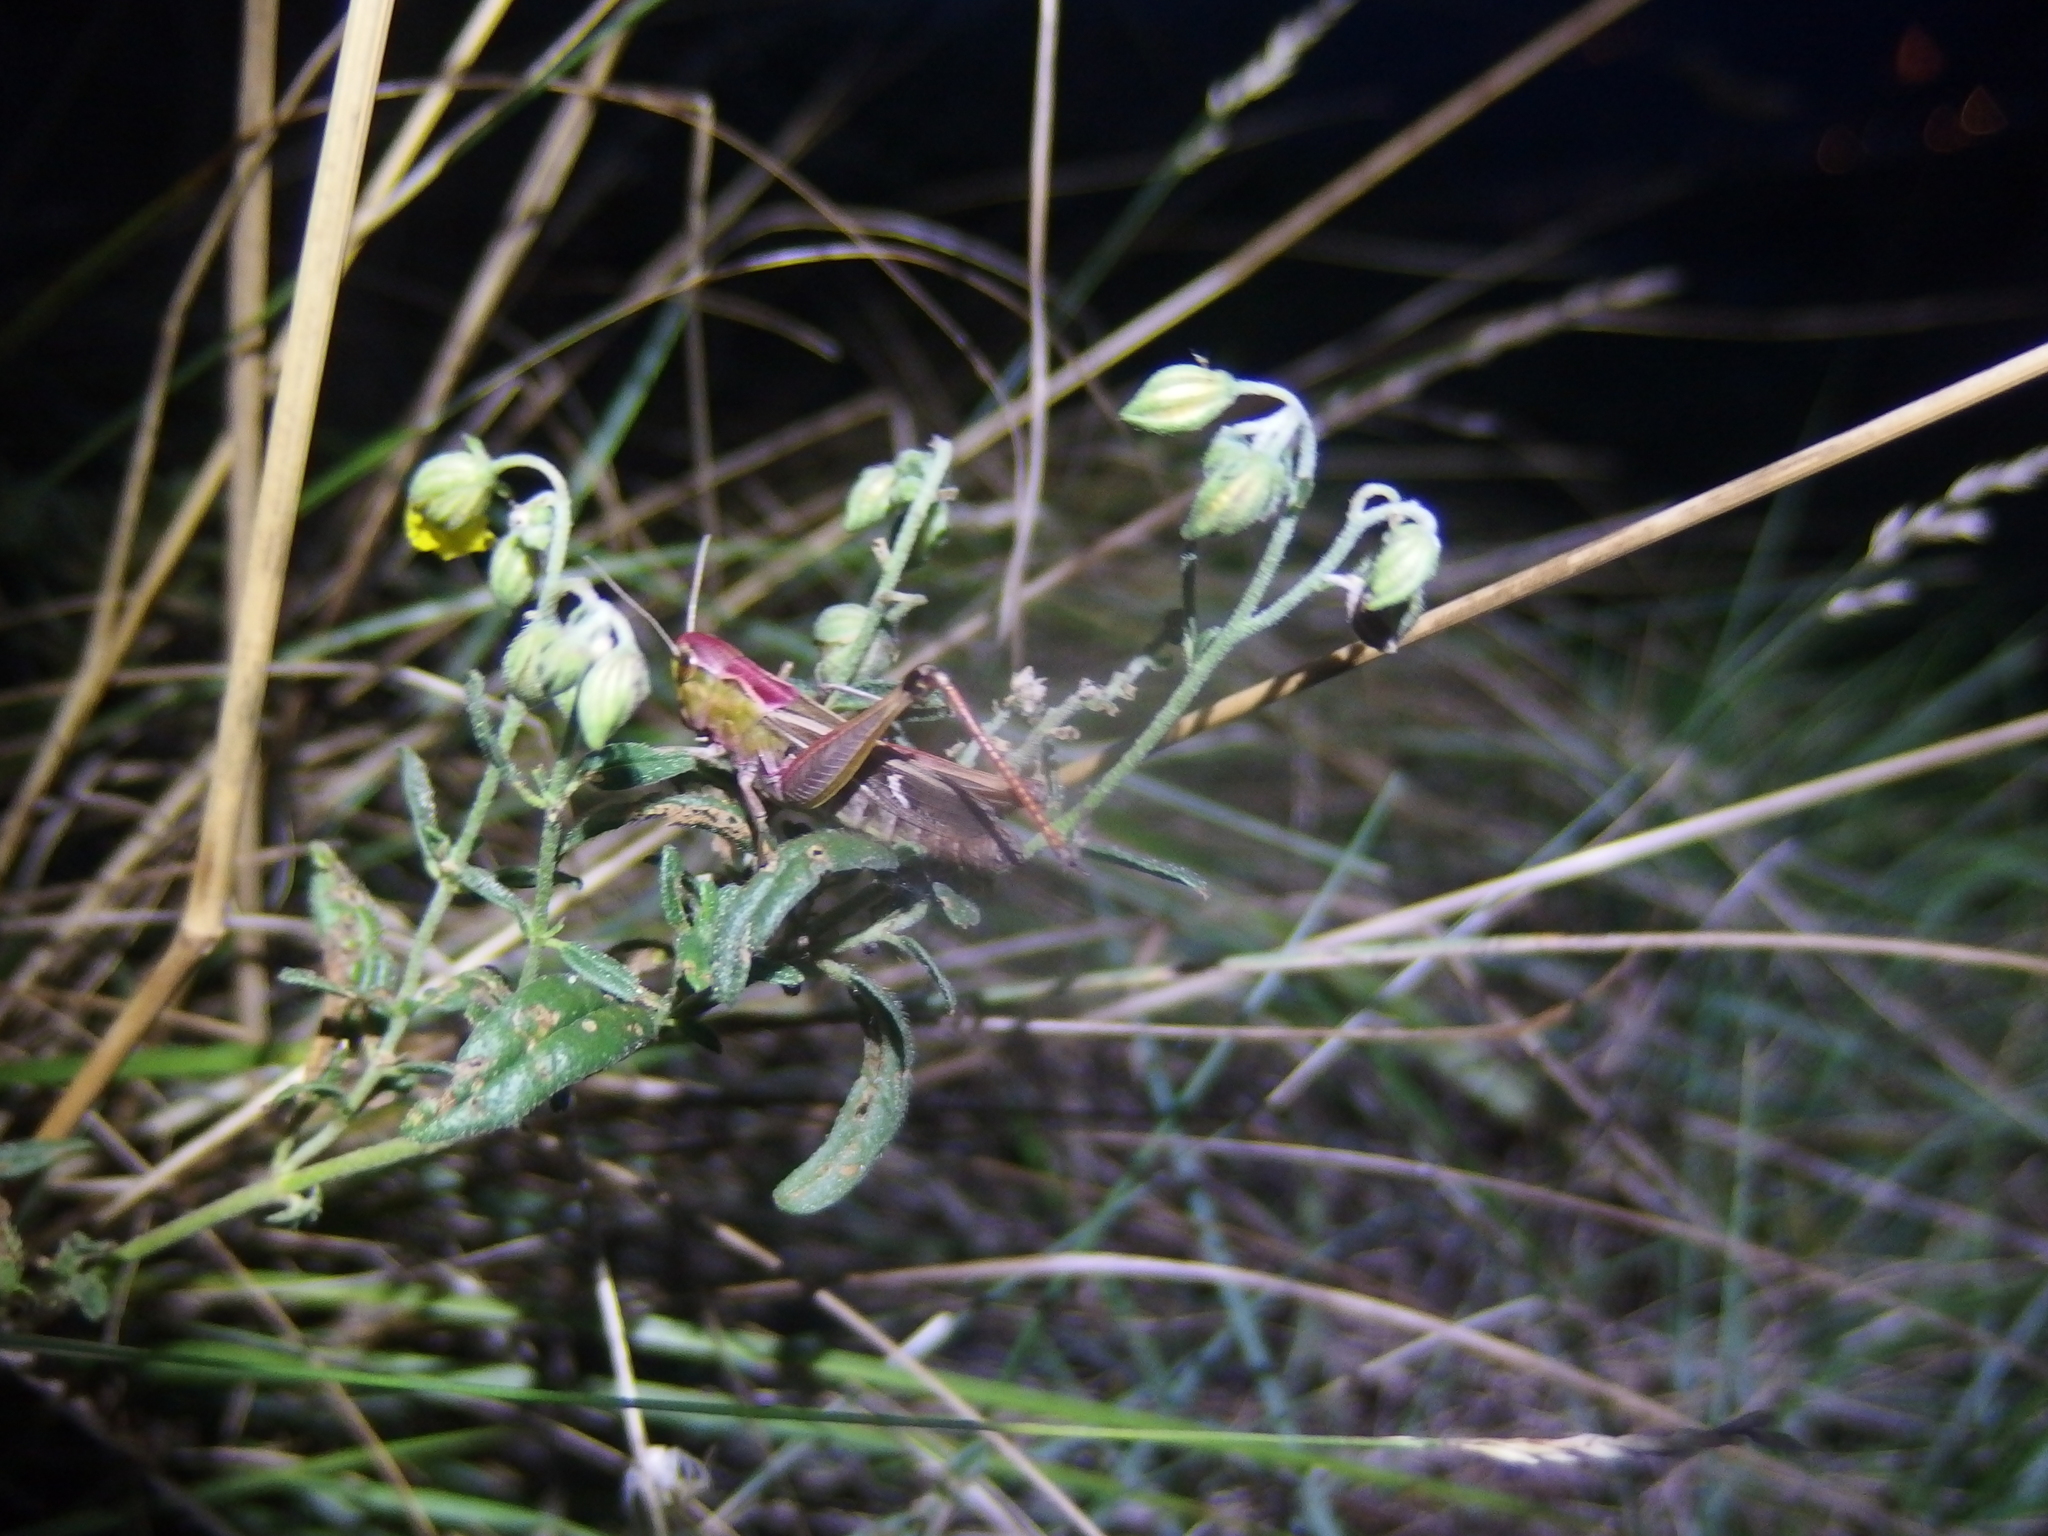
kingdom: Animalia
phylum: Arthropoda
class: Insecta
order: Orthoptera
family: Acrididae
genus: Stenobothrus
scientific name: Stenobothrus lineatus
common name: Stripe-winged grasshopper
